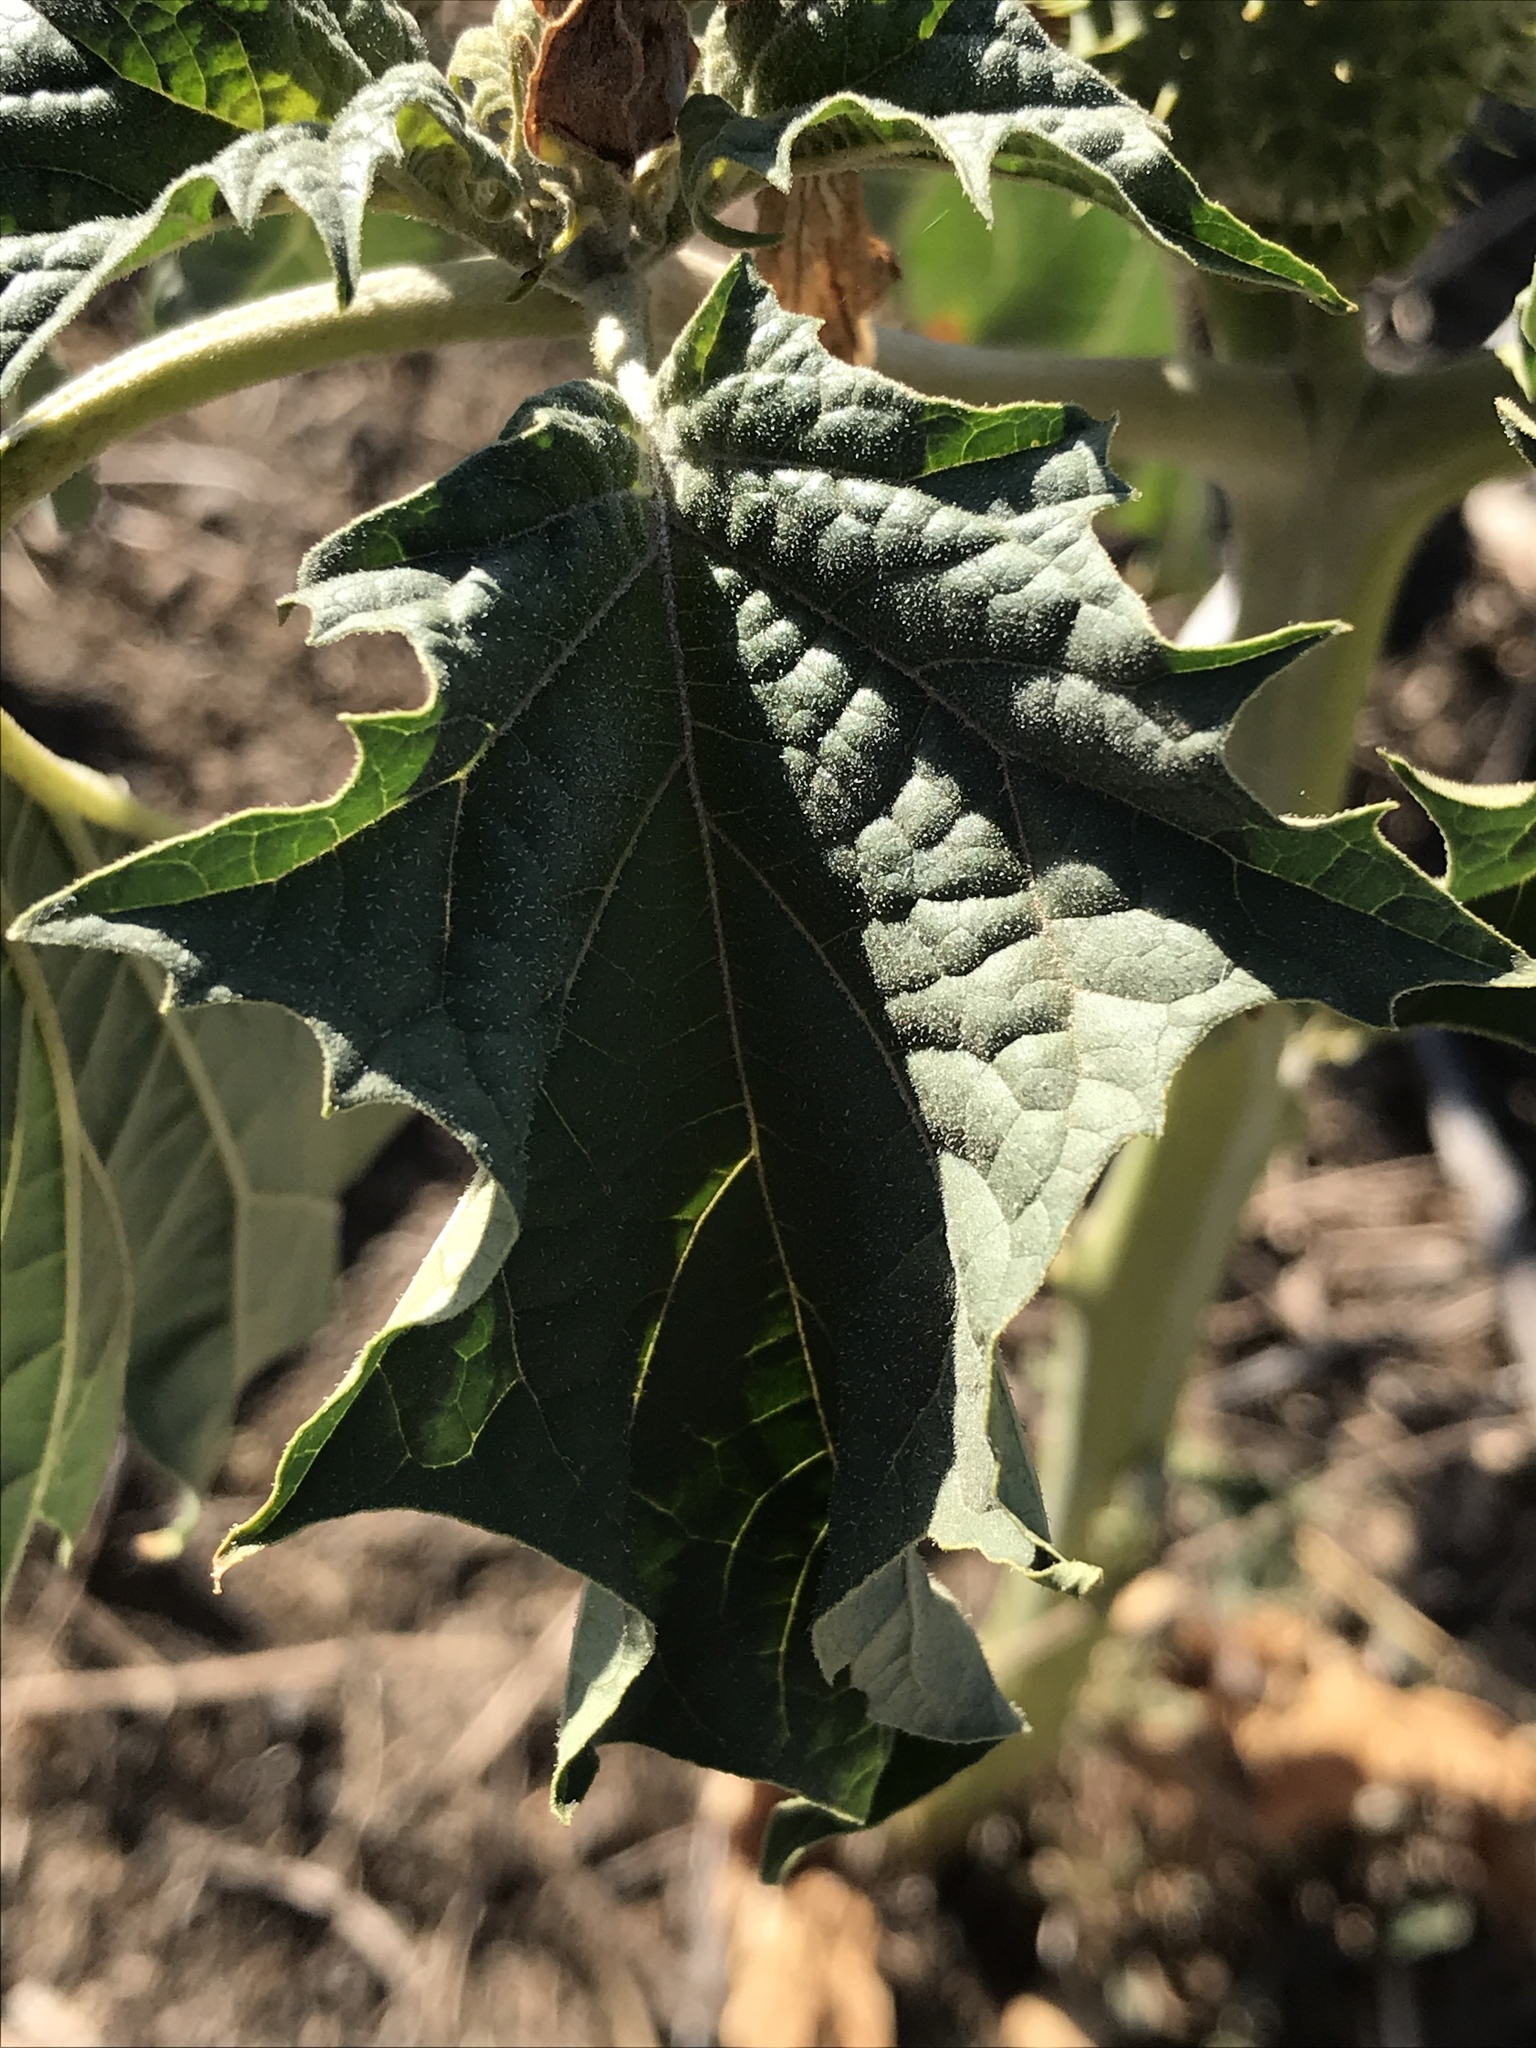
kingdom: Plantae
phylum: Tracheophyta
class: Magnoliopsida
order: Solanales
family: Solanaceae
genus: Datura
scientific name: Datura stramonium
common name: Thorn-apple
